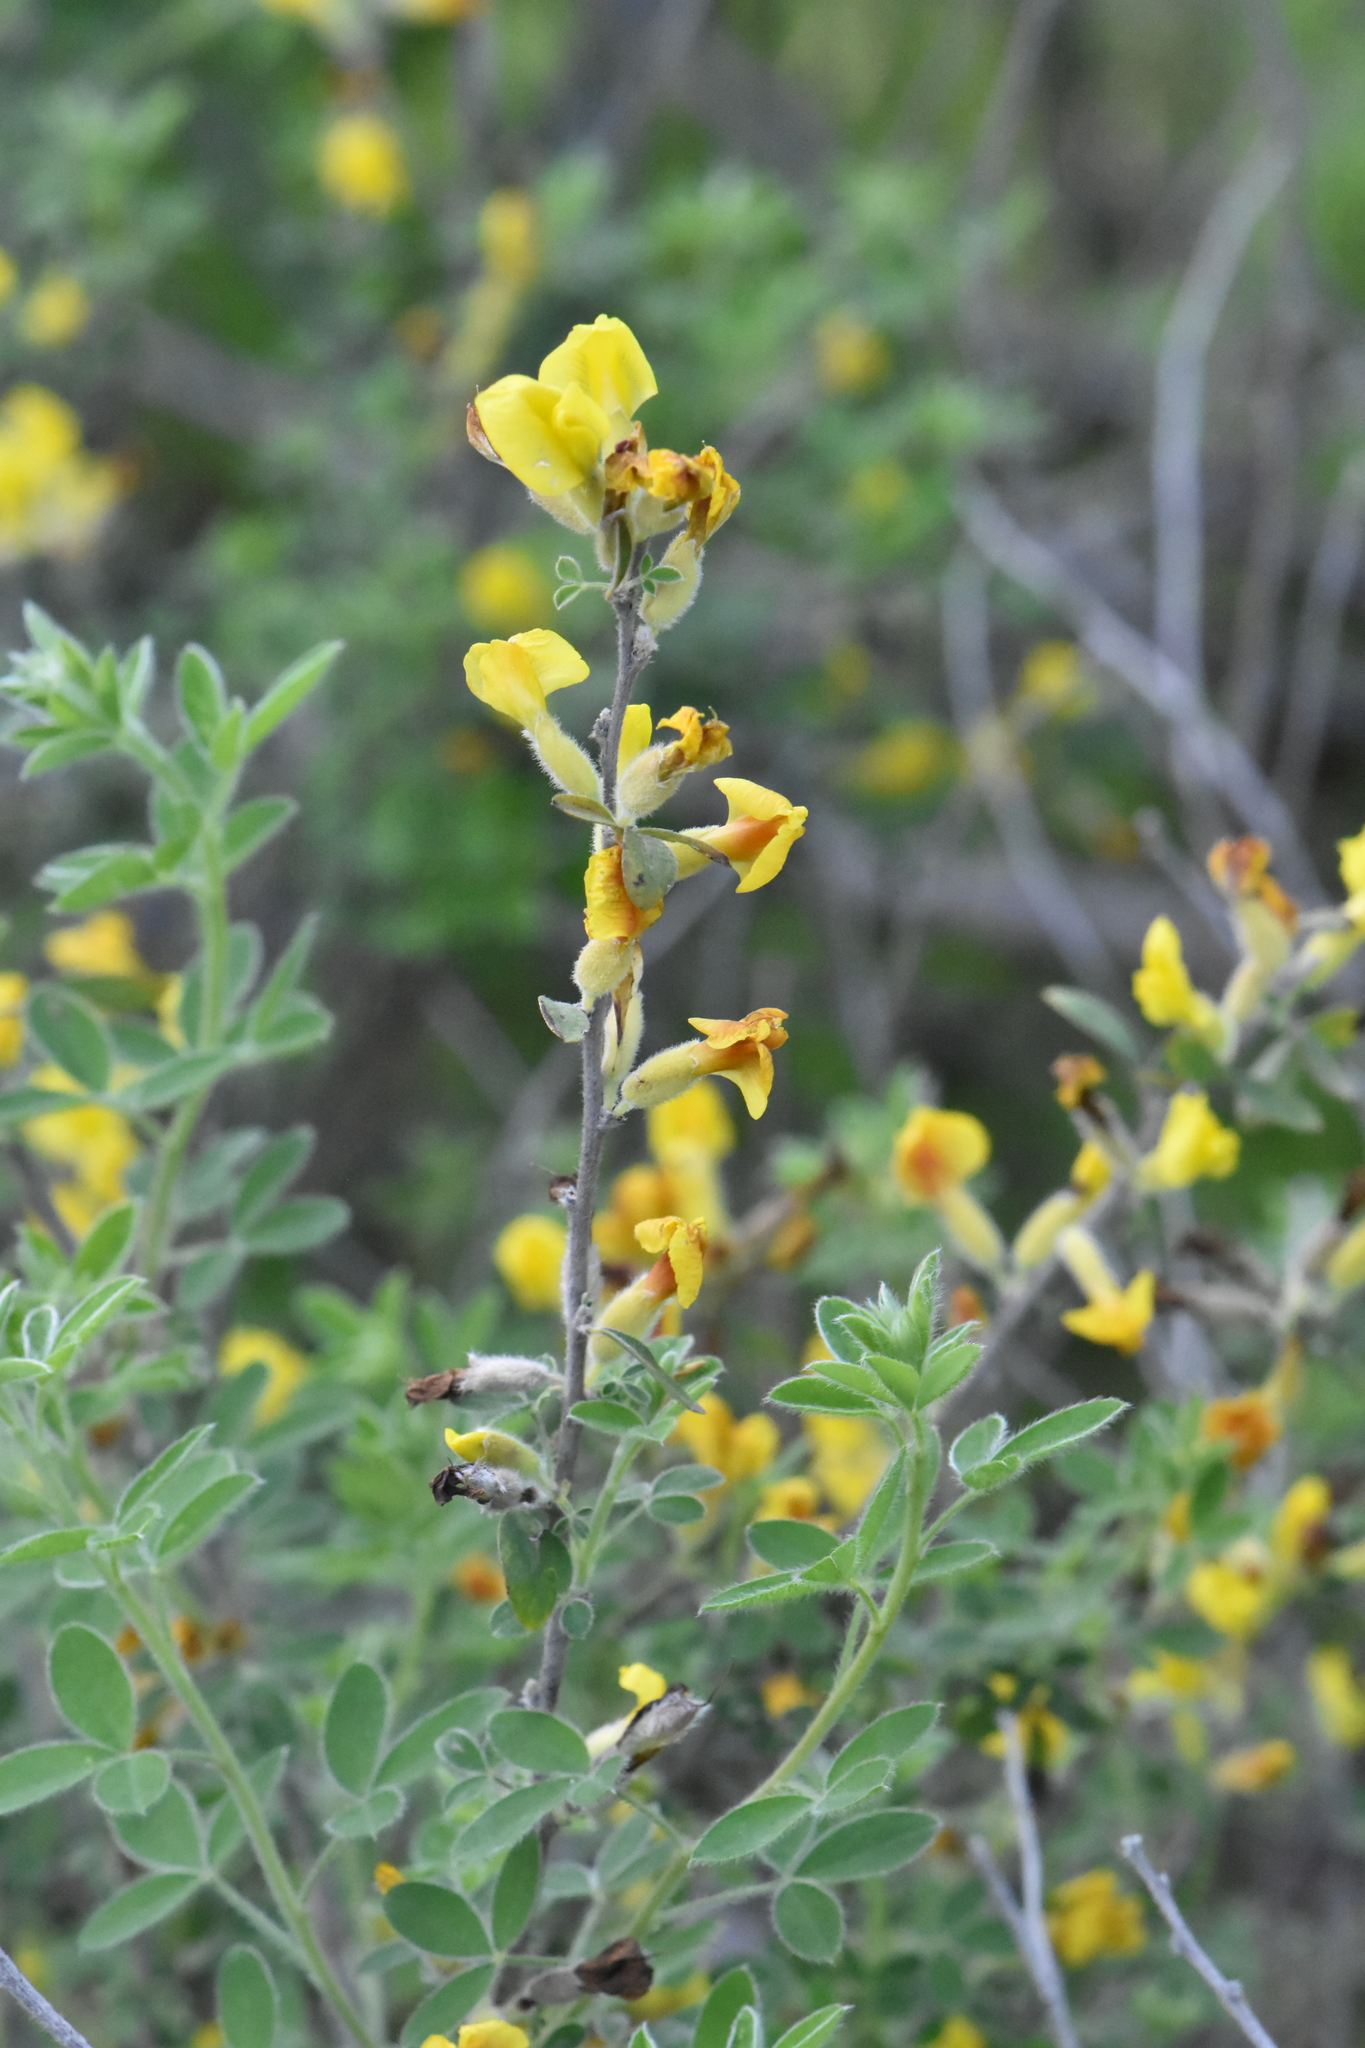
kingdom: Plantae
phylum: Tracheophyta
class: Magnoliopsida
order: Fabales
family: Fabaceae
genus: Chamaecytisus
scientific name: Chamaecytisus ruthenicus
